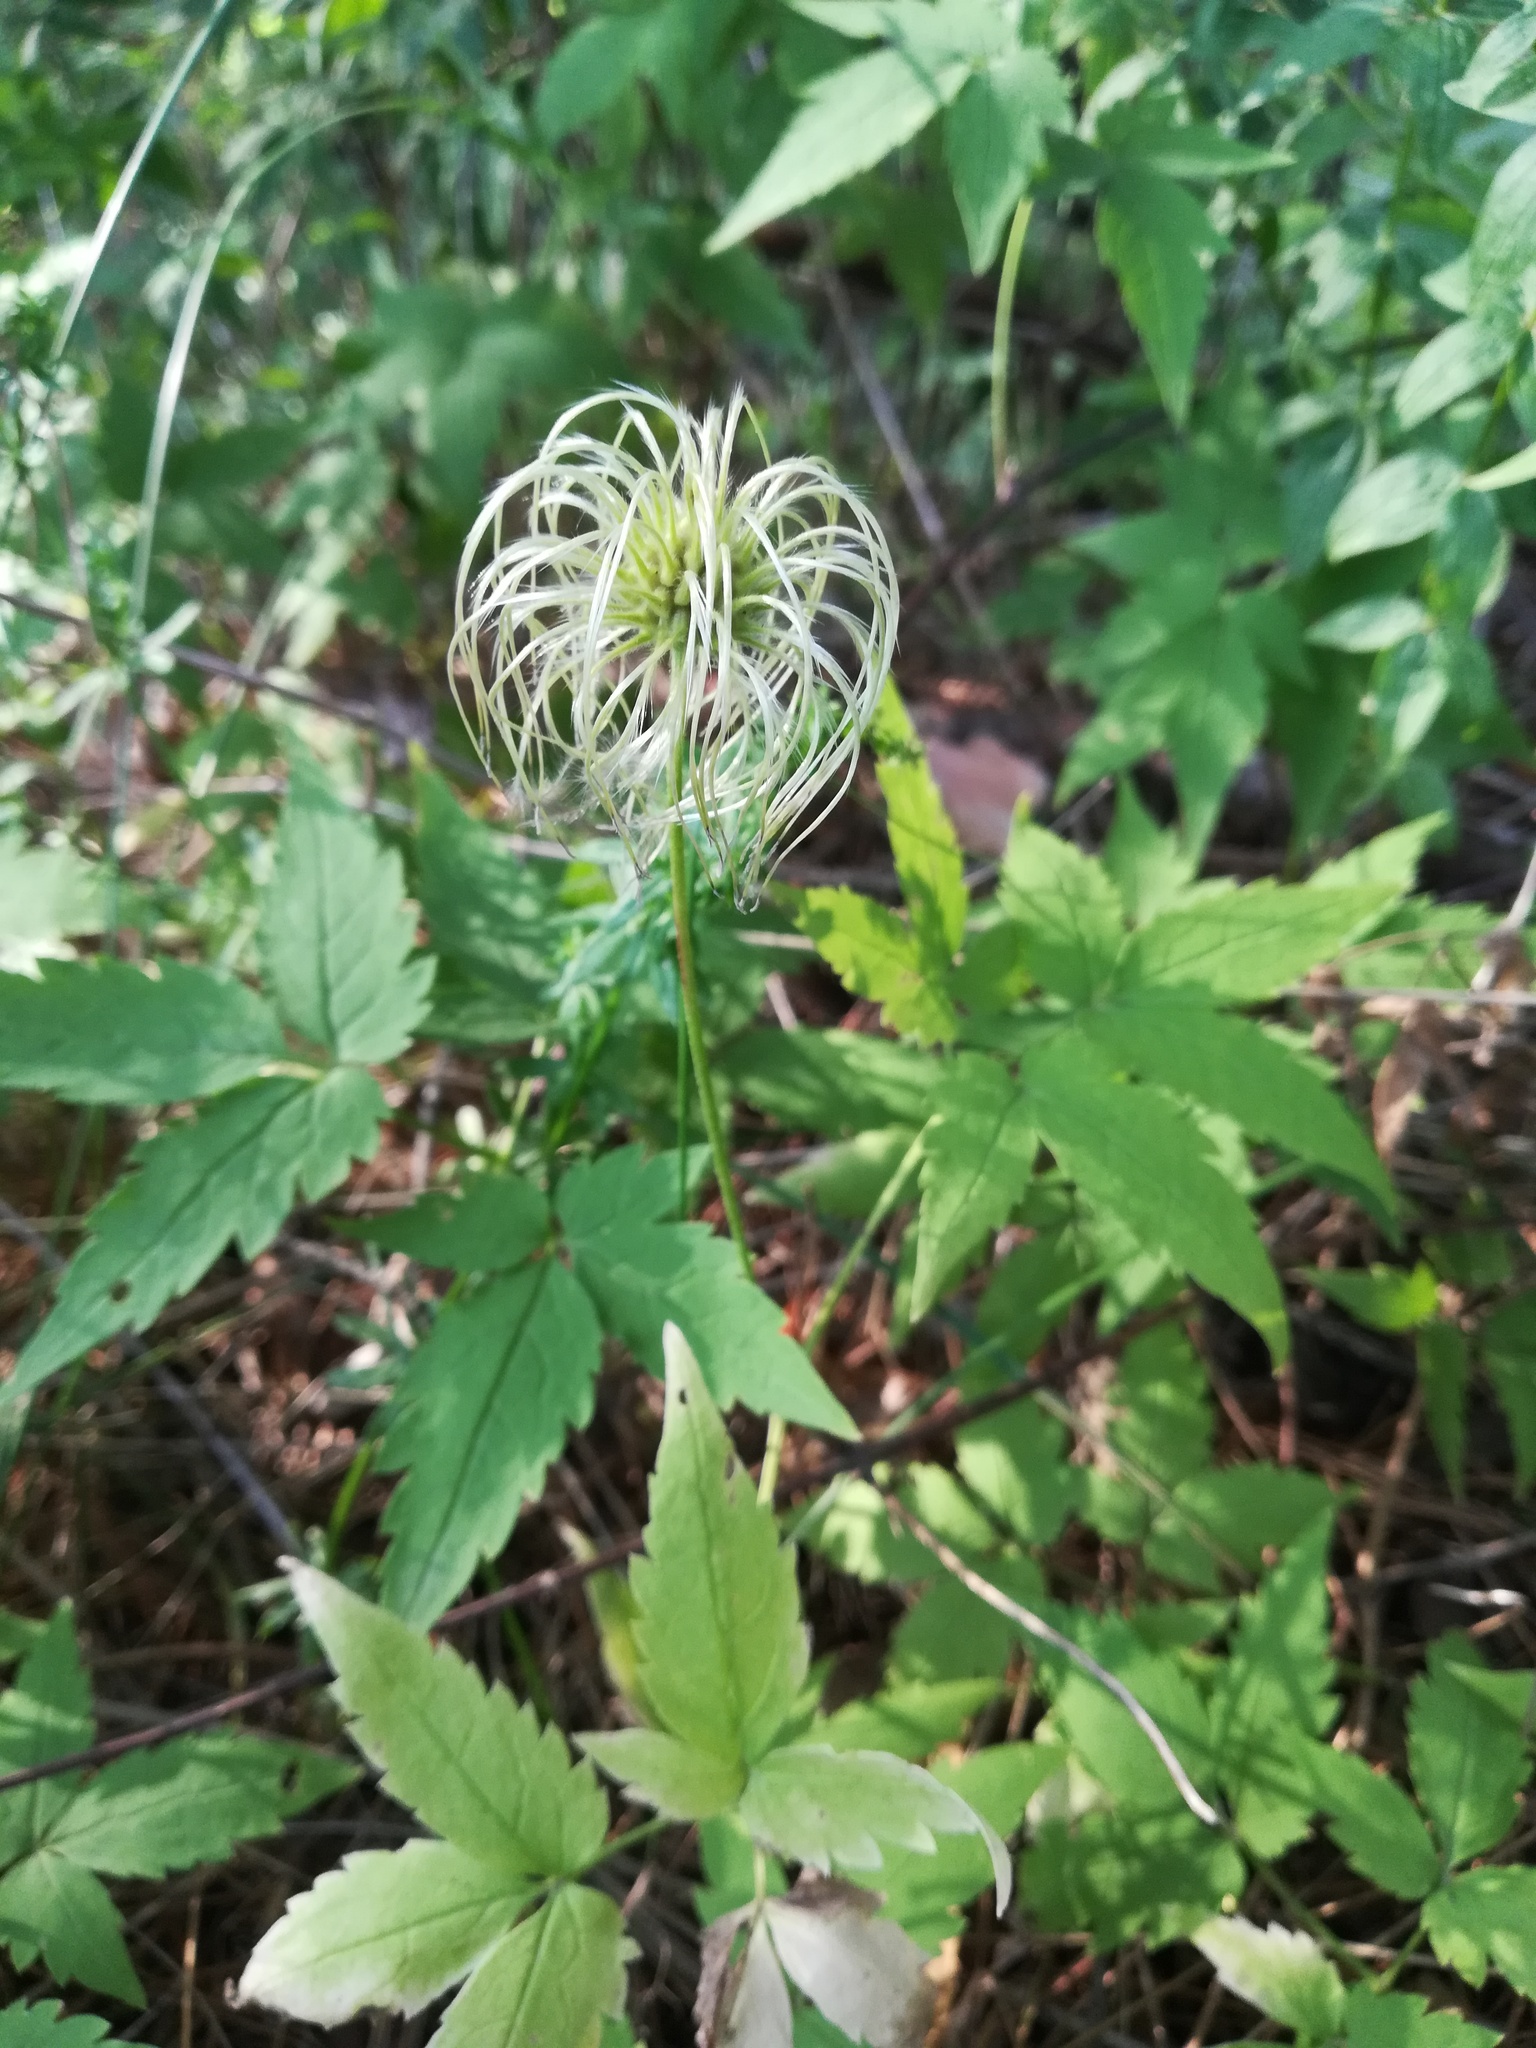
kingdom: Plantae
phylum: Tracheophyta
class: Magnoliopsida
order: Ranunculales
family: Ranunculaceae
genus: Clematis
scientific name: Clematis sibirica
